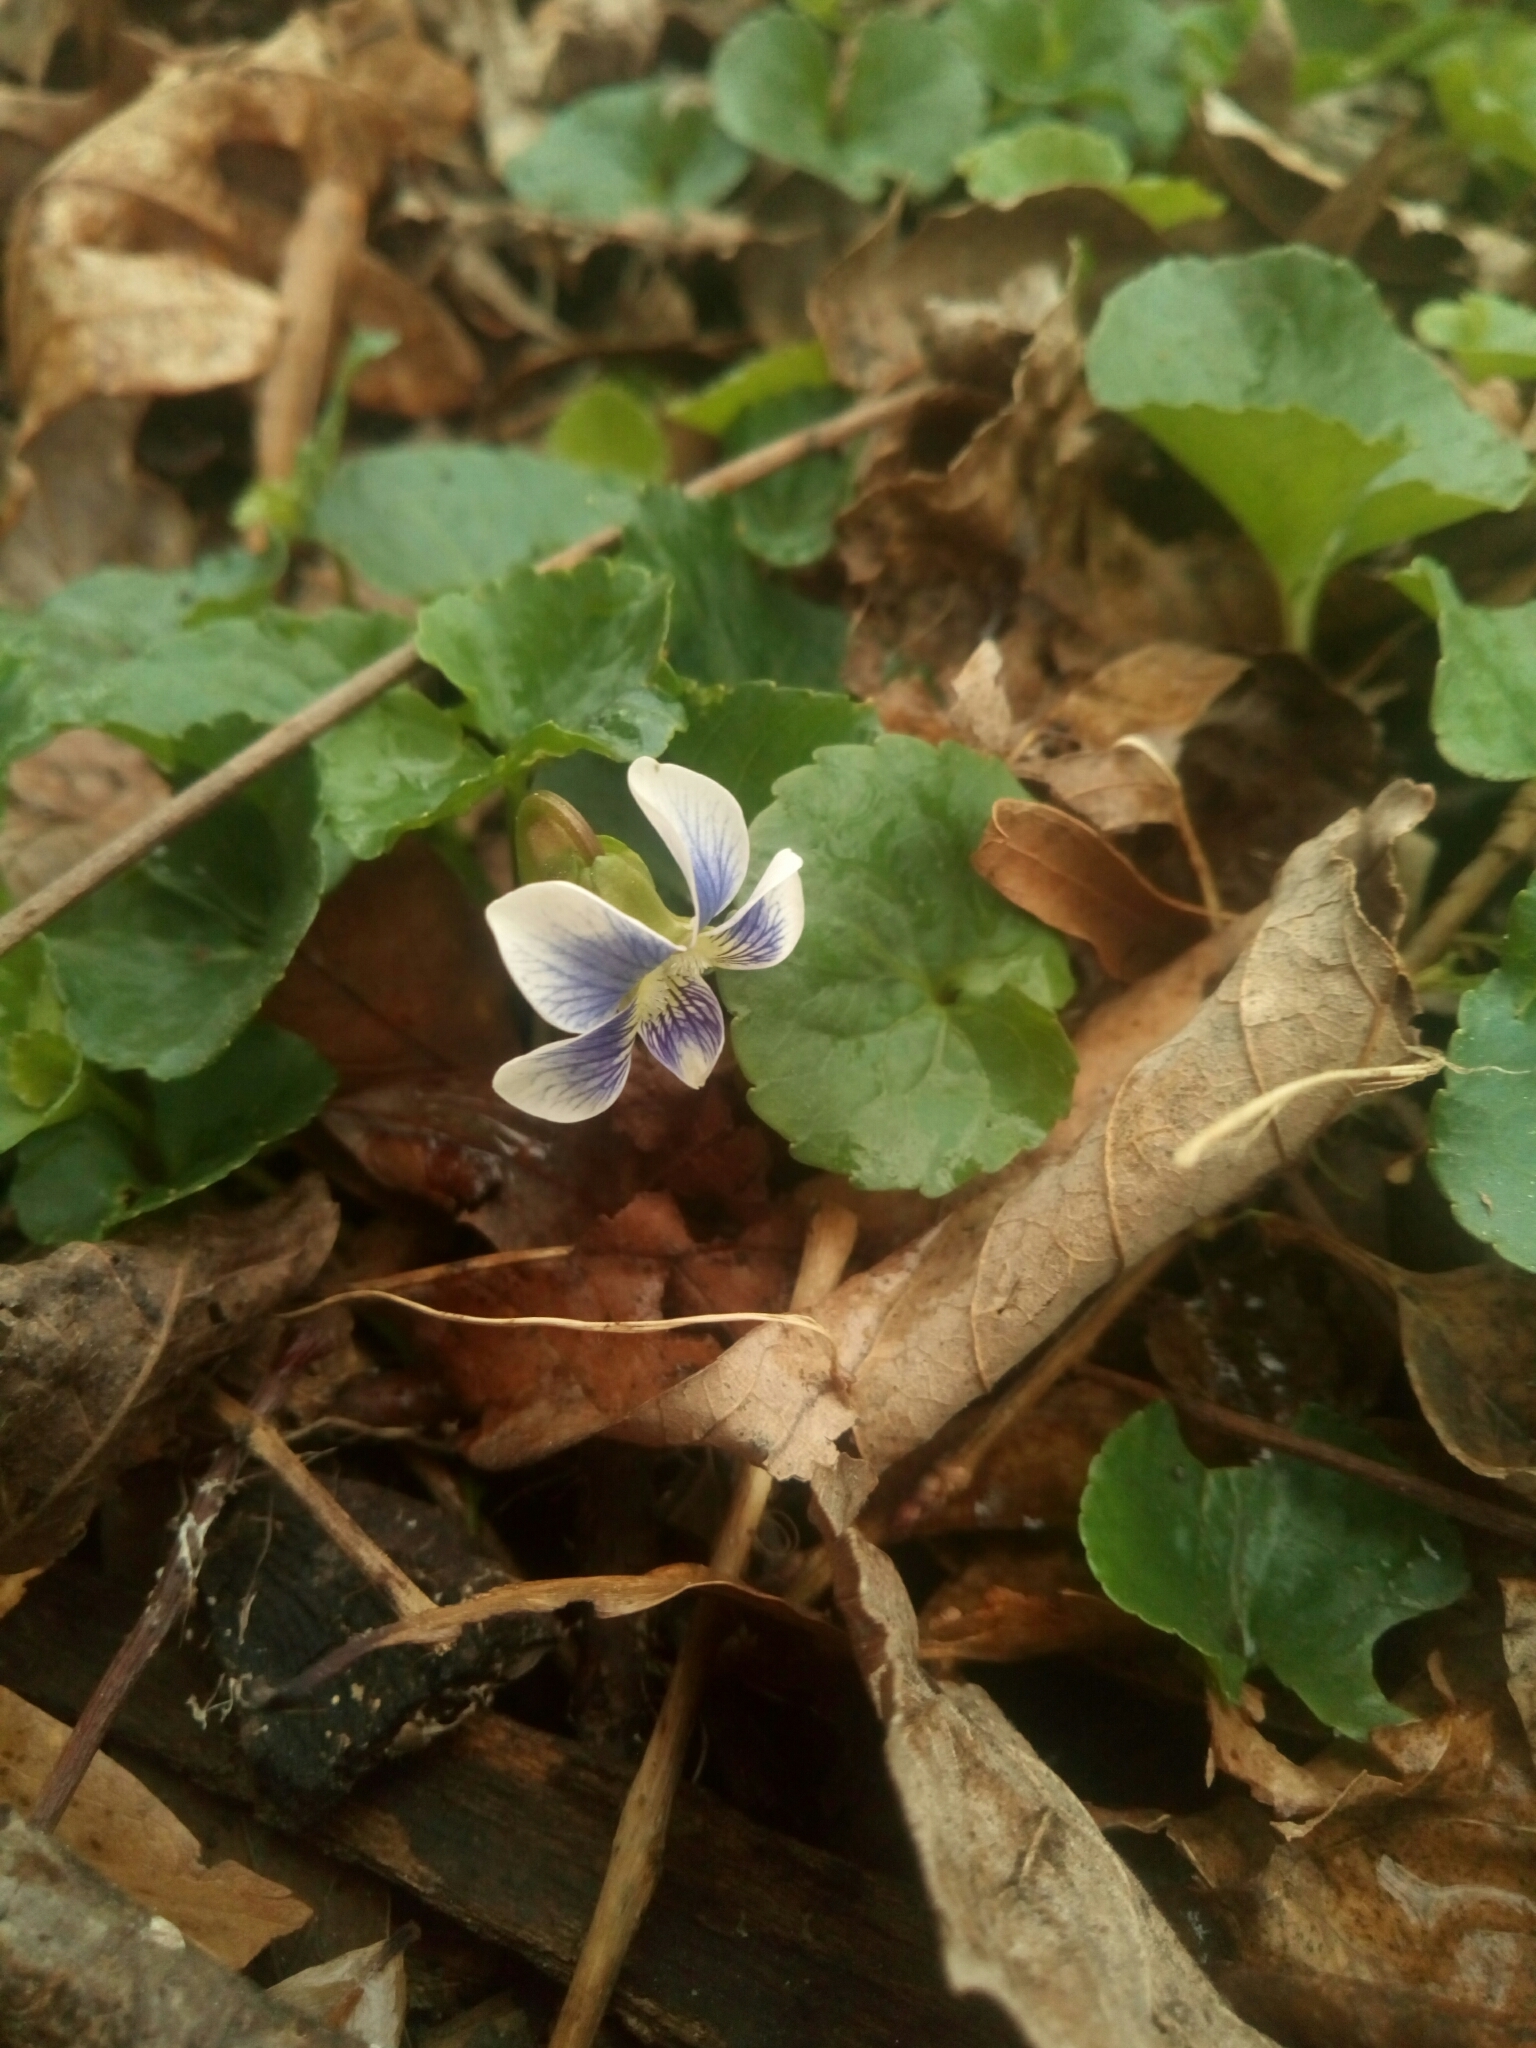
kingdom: Plantae
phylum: Tracheophyta
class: Magnoliopsida
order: Malpighiales
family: Violaceae
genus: Viola
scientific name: Viola sororia
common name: Dooryard violet
